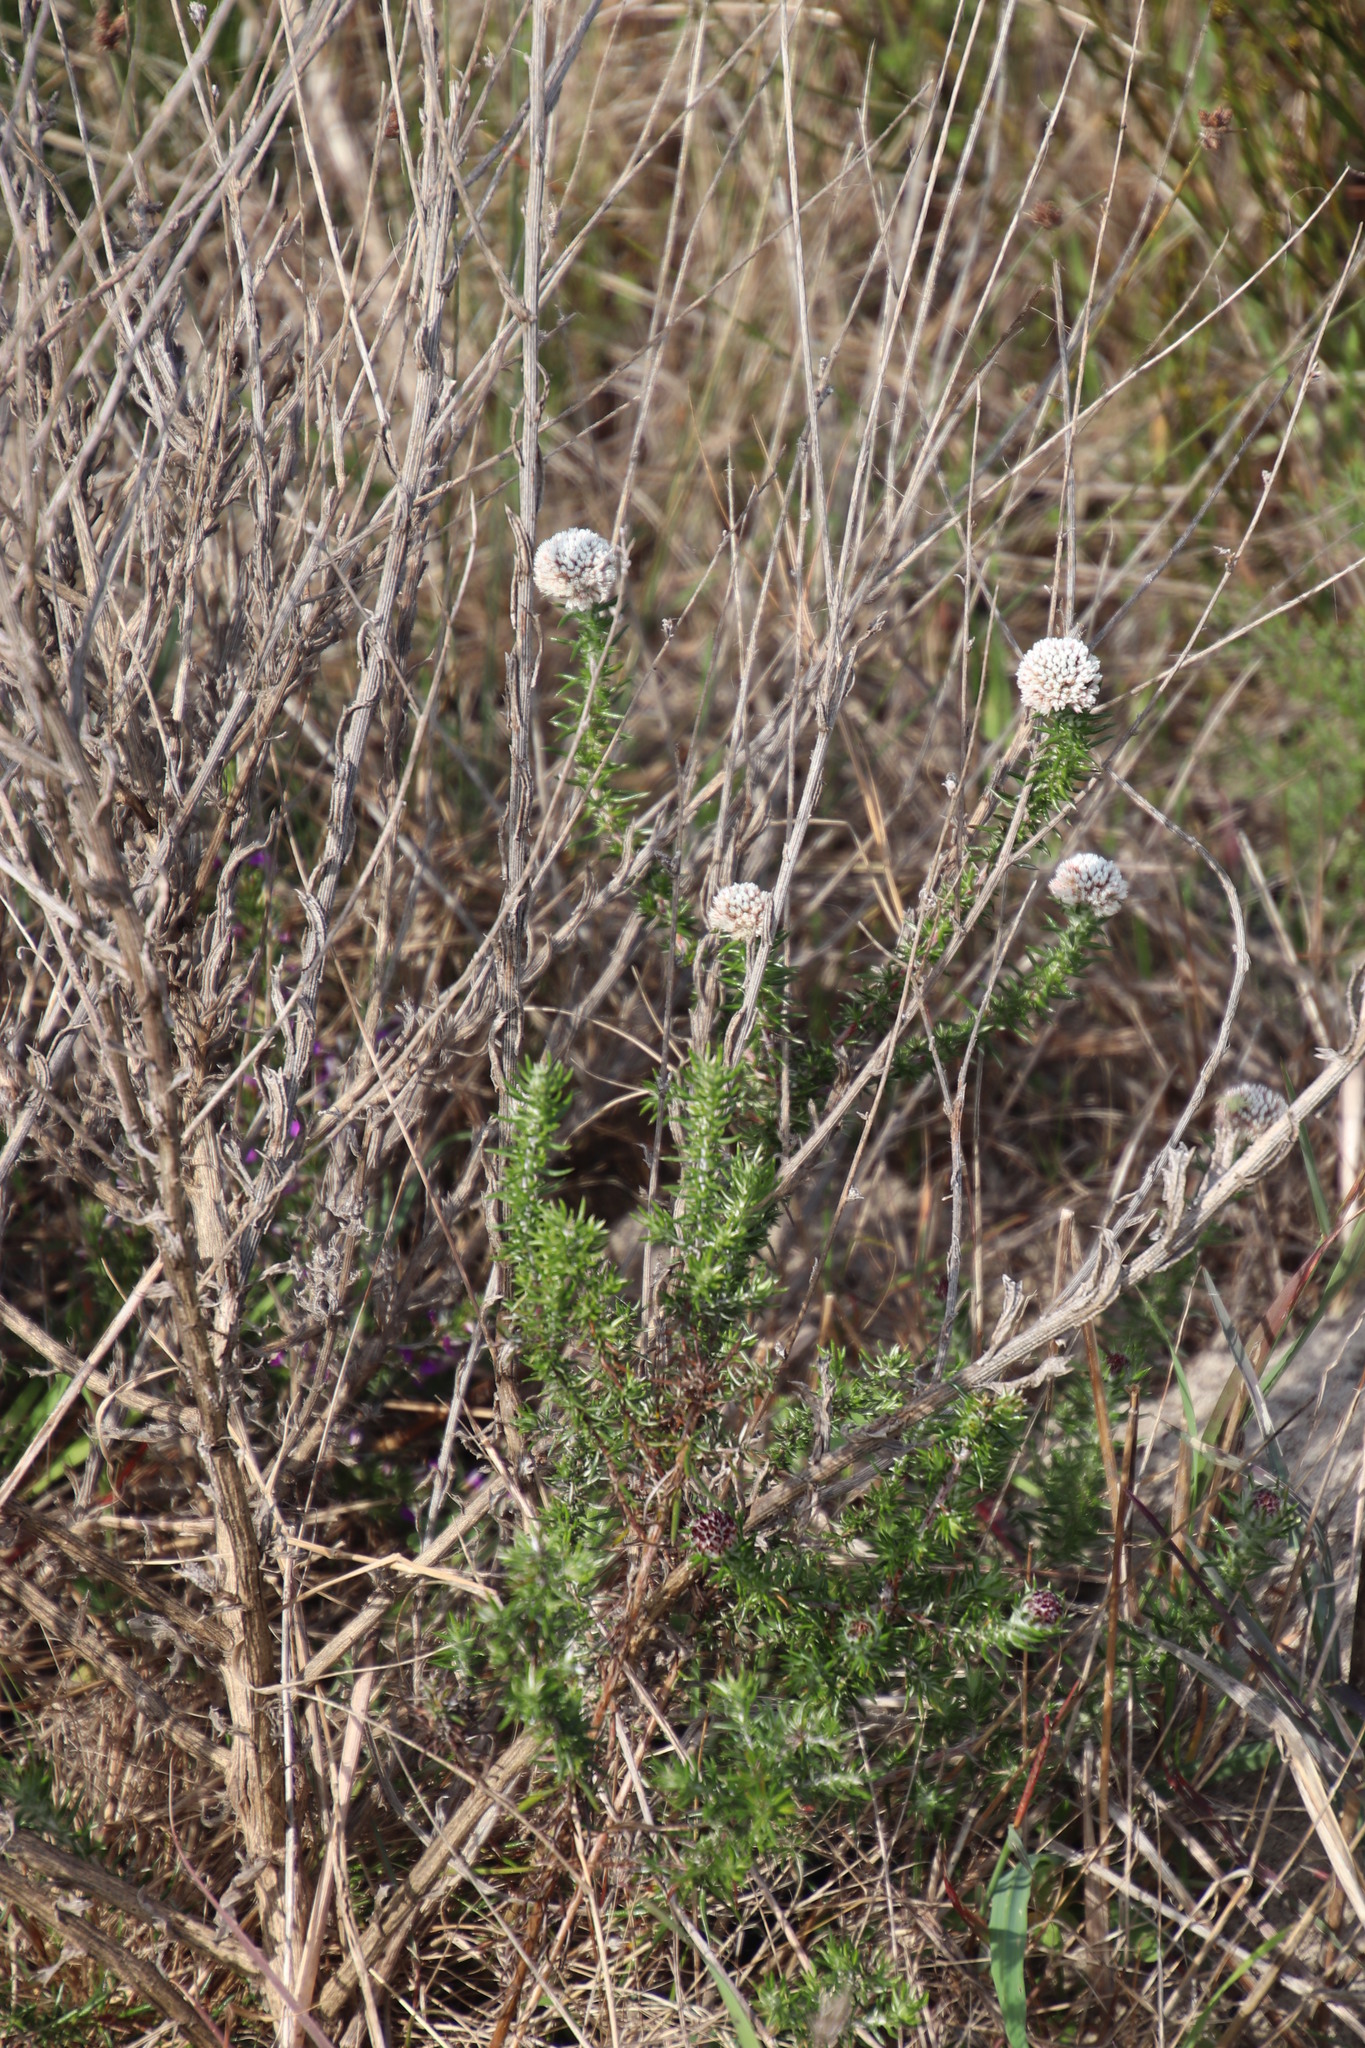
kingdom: Plantae
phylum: Tracheophyta
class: Magnoliopsida
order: Asterales
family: Asteraceae
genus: Metalasia
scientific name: Metalasia pulchella
